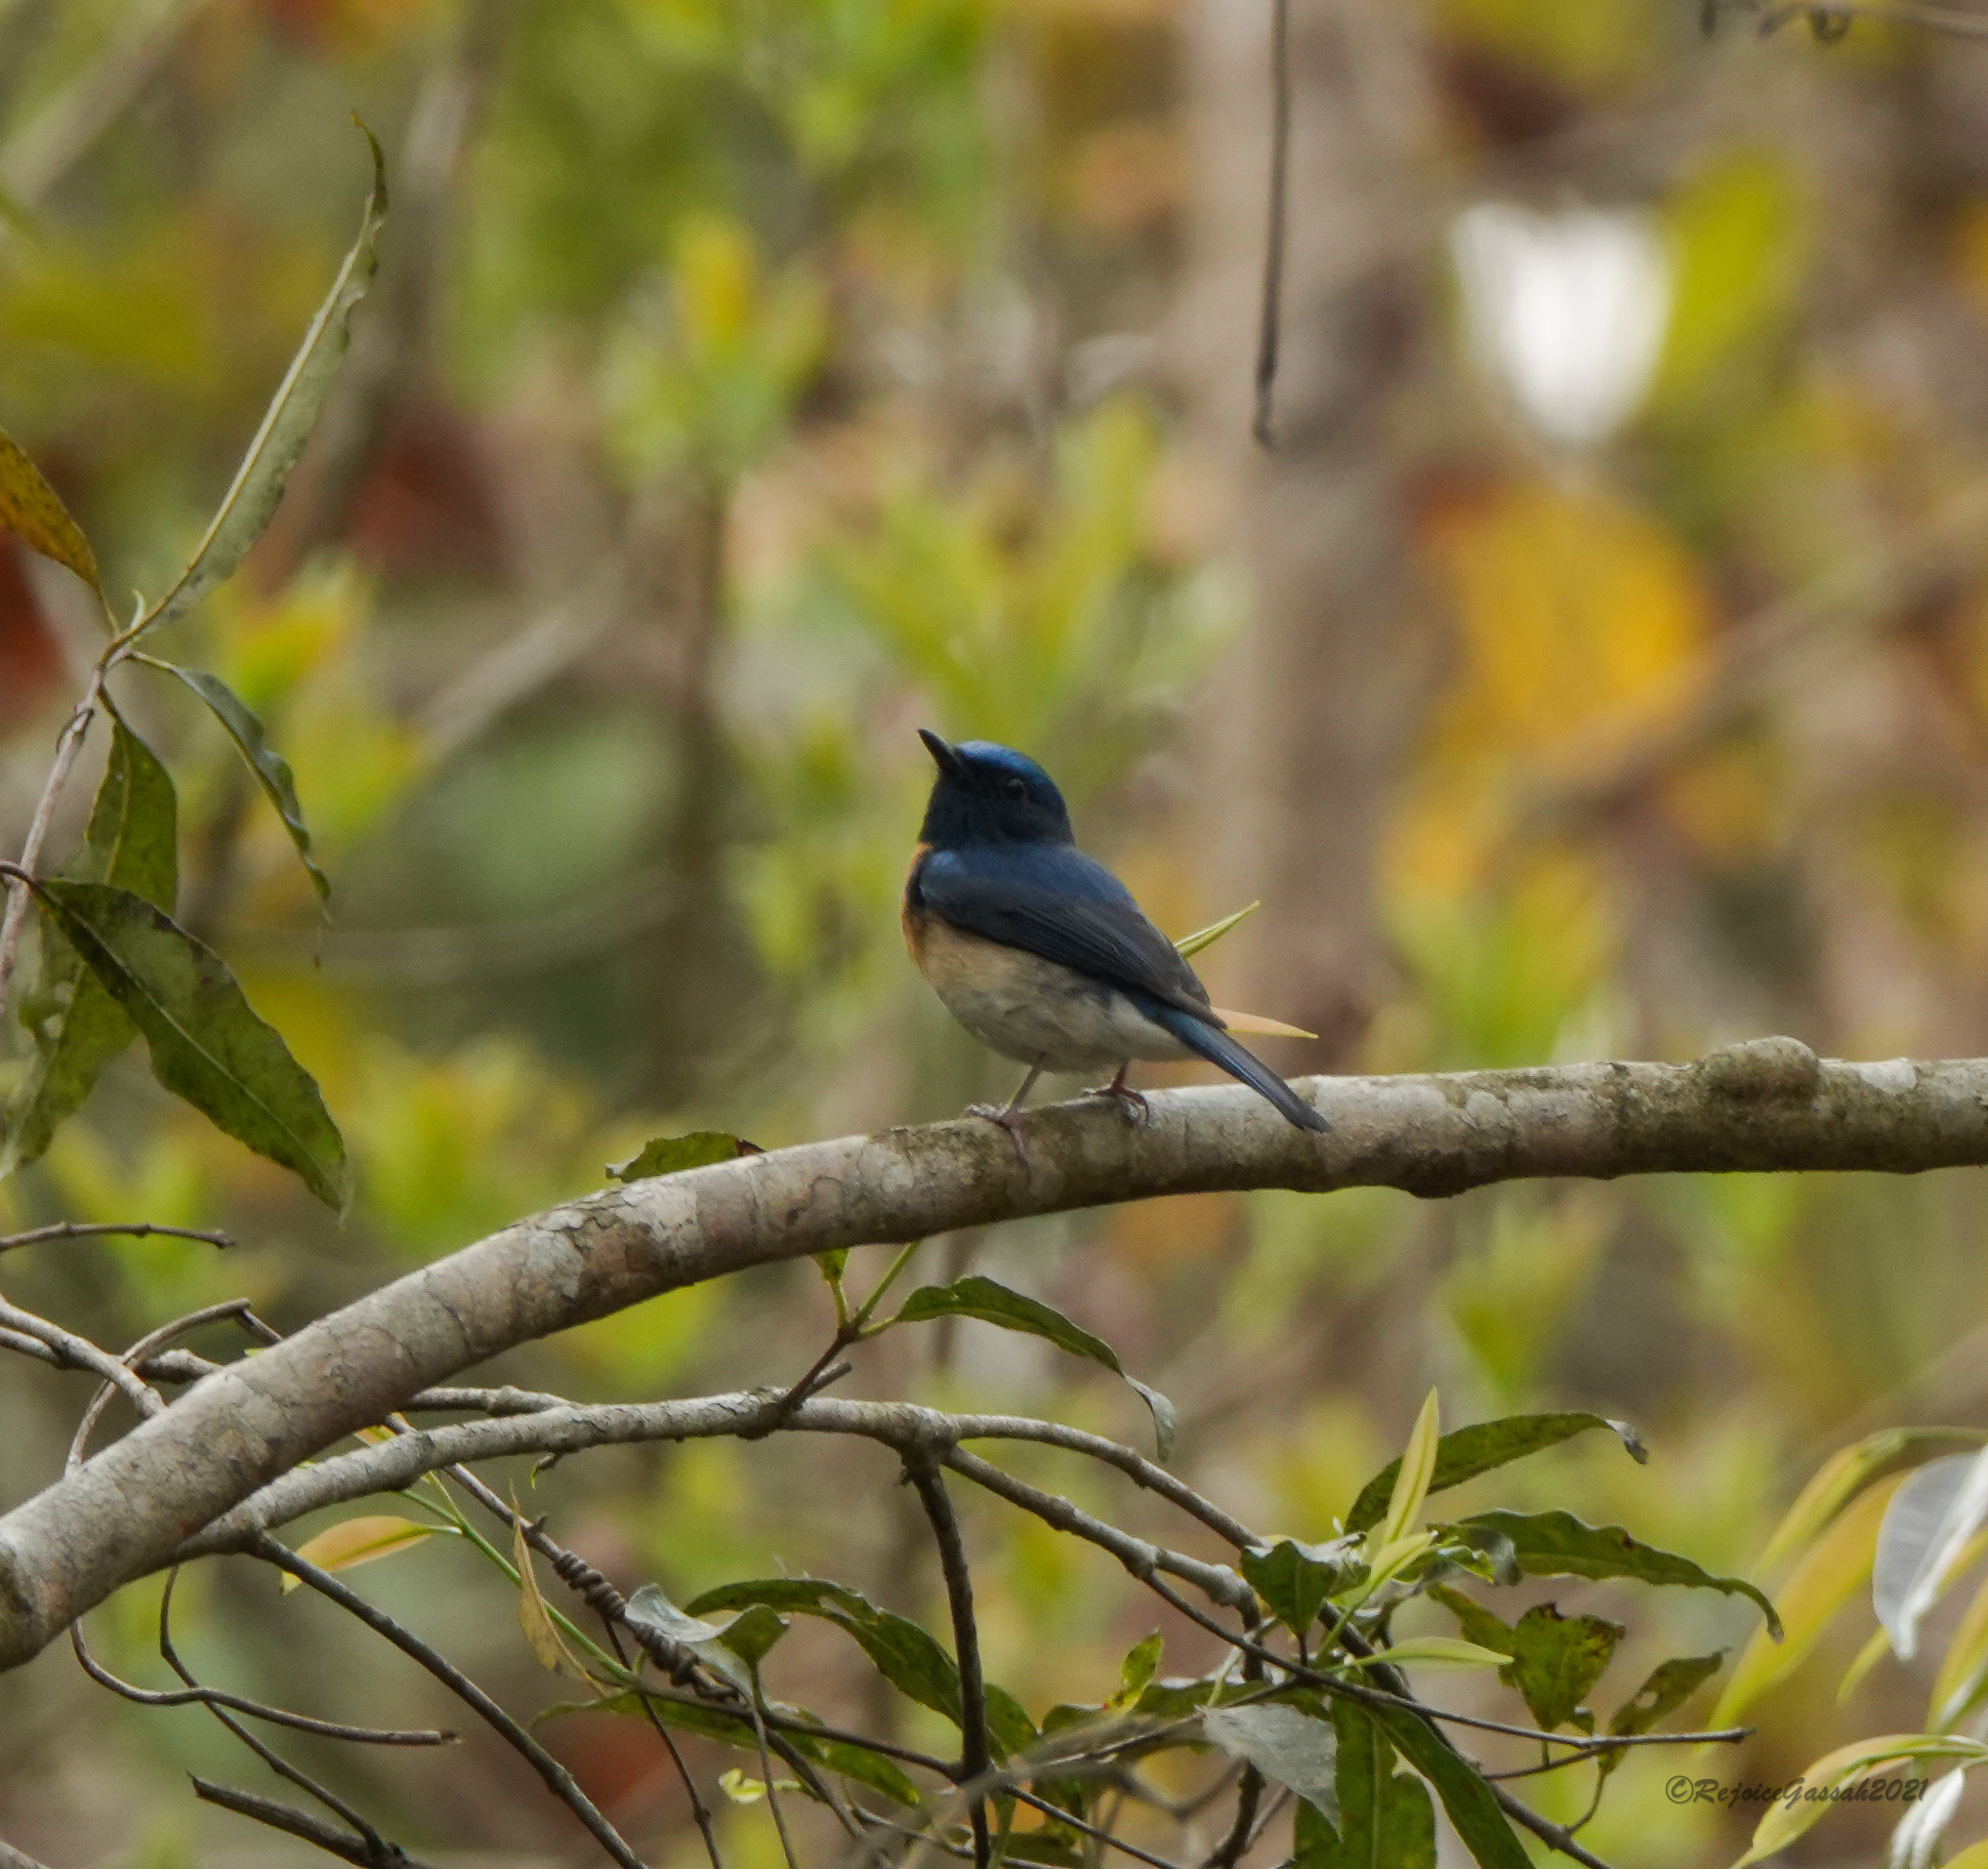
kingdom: Animalia
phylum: Chordata
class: Aves
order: Passeriformes
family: Muscicapidae
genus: Cyornis
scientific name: Cyornis rubeculoides
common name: Blue-throated blue flycatcher
